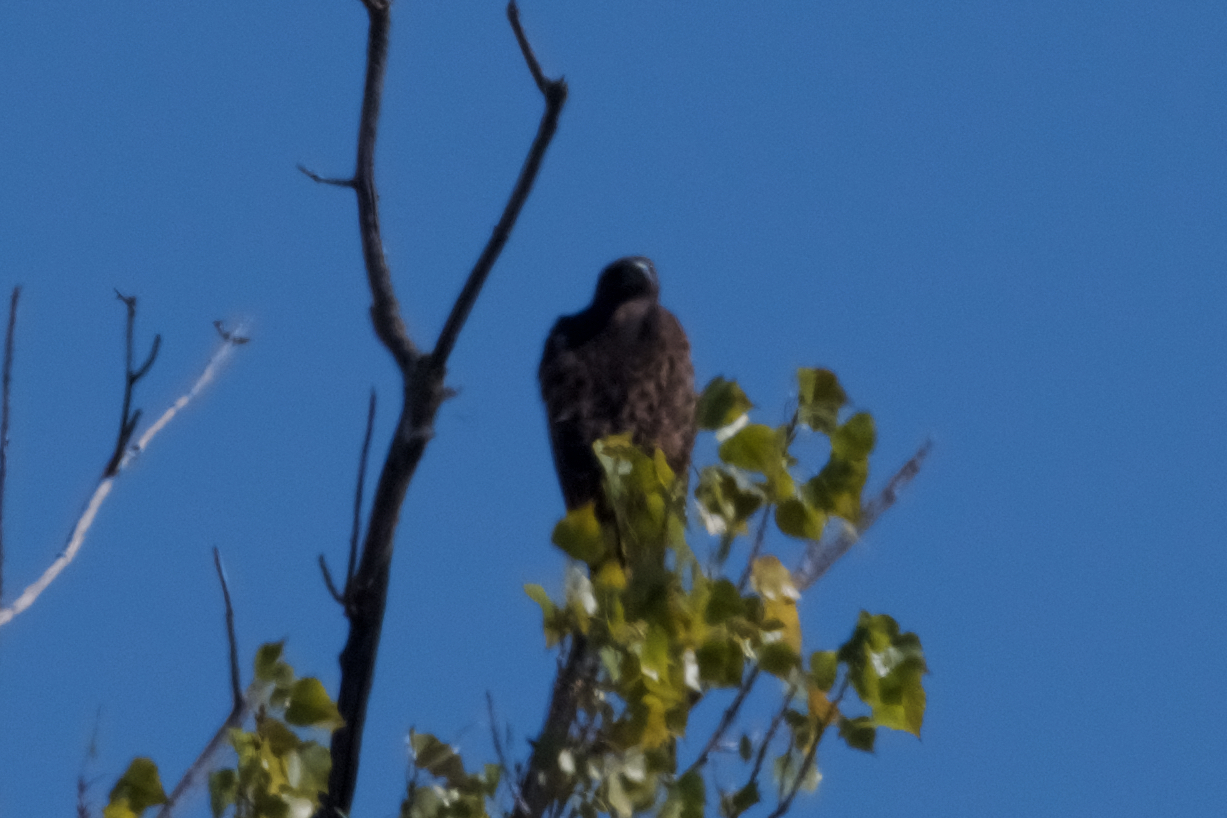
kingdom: Animalia
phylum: Chordata
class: Aves
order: Accipitriformes
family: Accipitridae
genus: Buteo
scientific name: Buteo jamaicensis
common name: Red-tailed hawk
